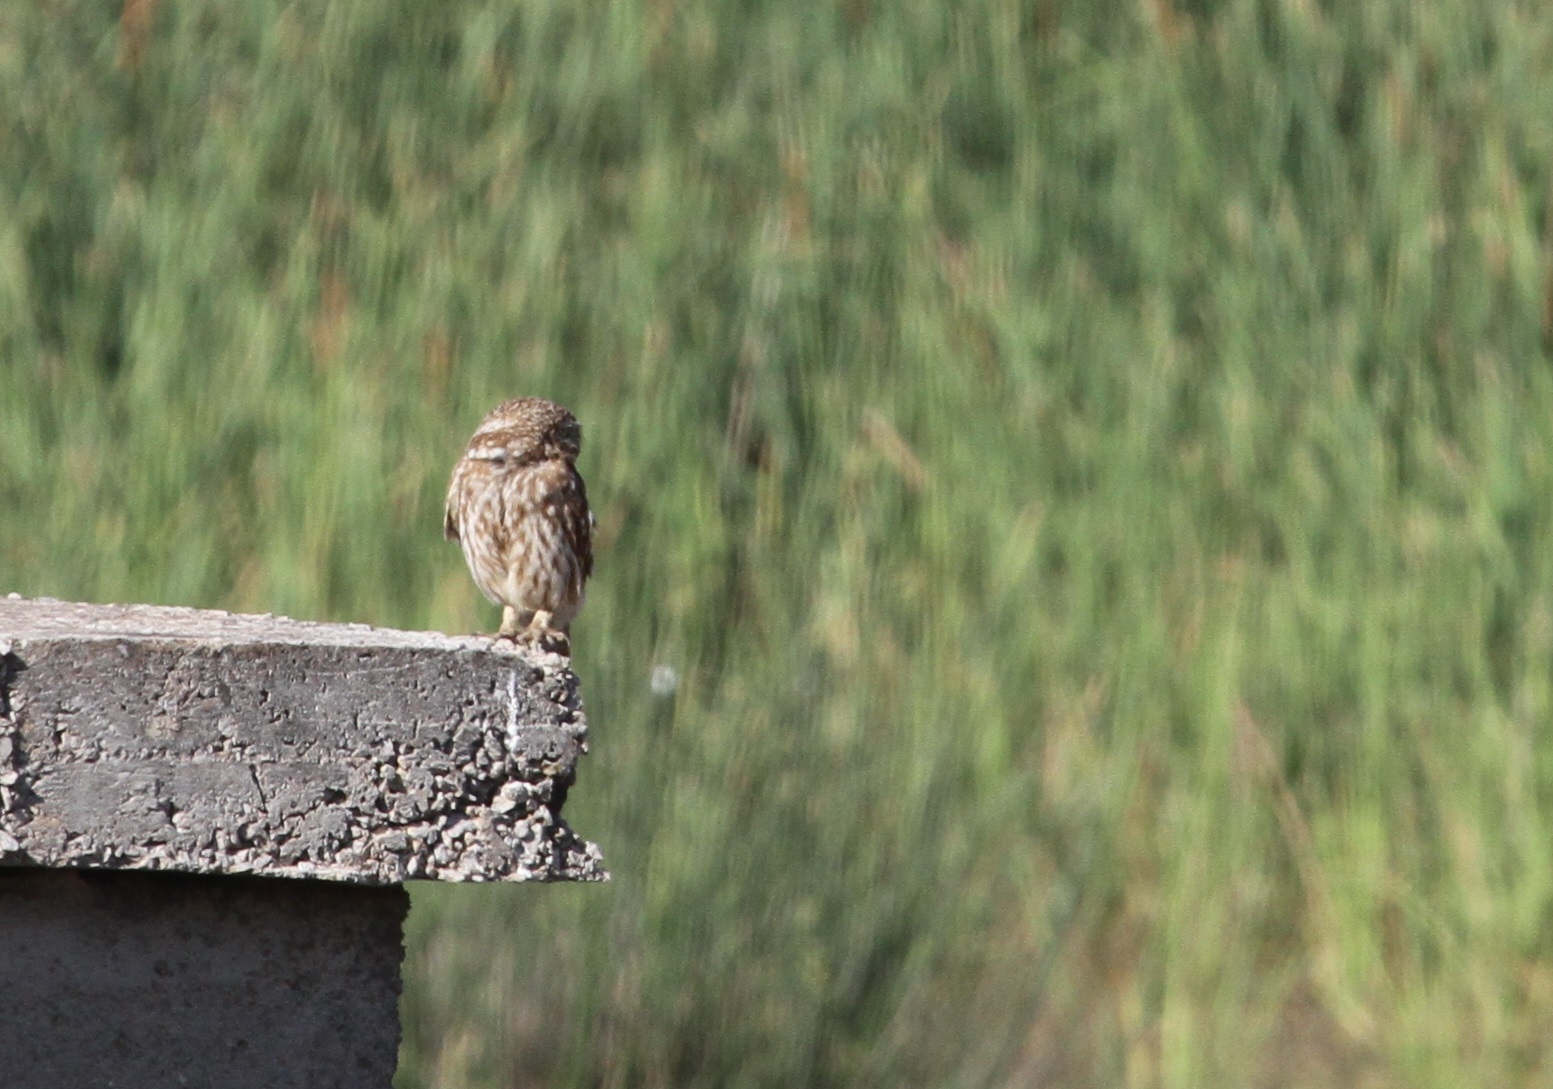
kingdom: Animalia
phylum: Chordata
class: Aves
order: Strigiformes
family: Strigidae
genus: Athene
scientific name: Athene noctua
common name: Little owl
